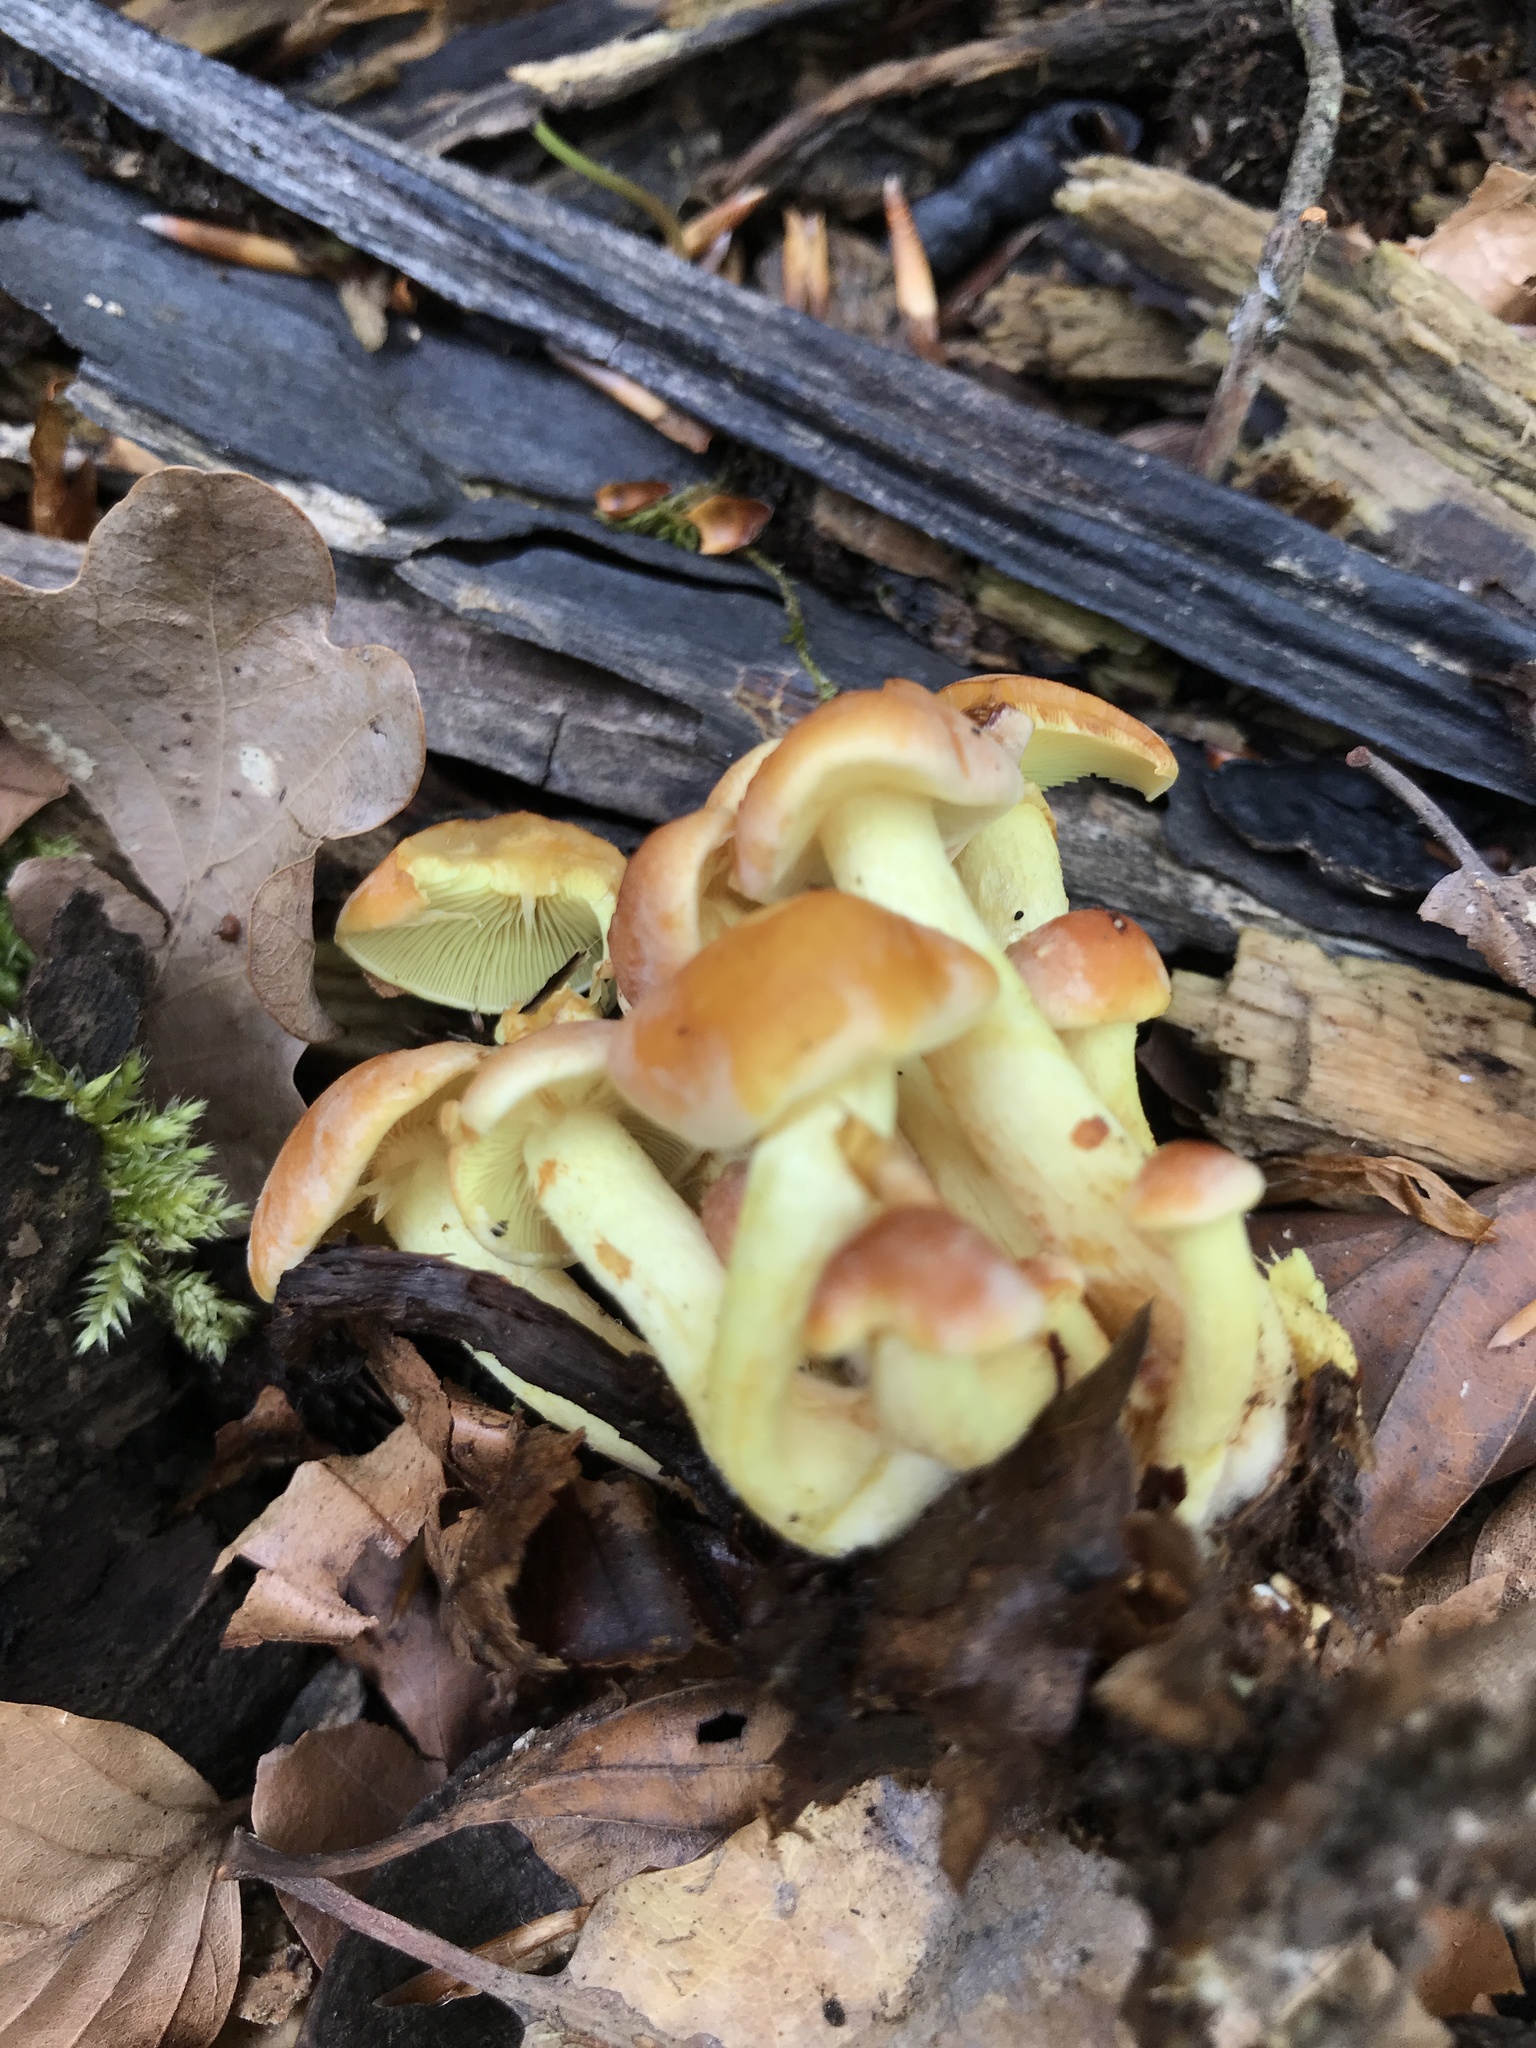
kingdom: Fungi
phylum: Basidiomycota
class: Agaricomycetes
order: Agaricales
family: Strophariaceae
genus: Hypholoma
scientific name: Hypholoma fasciculare
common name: Sulphur tuft
